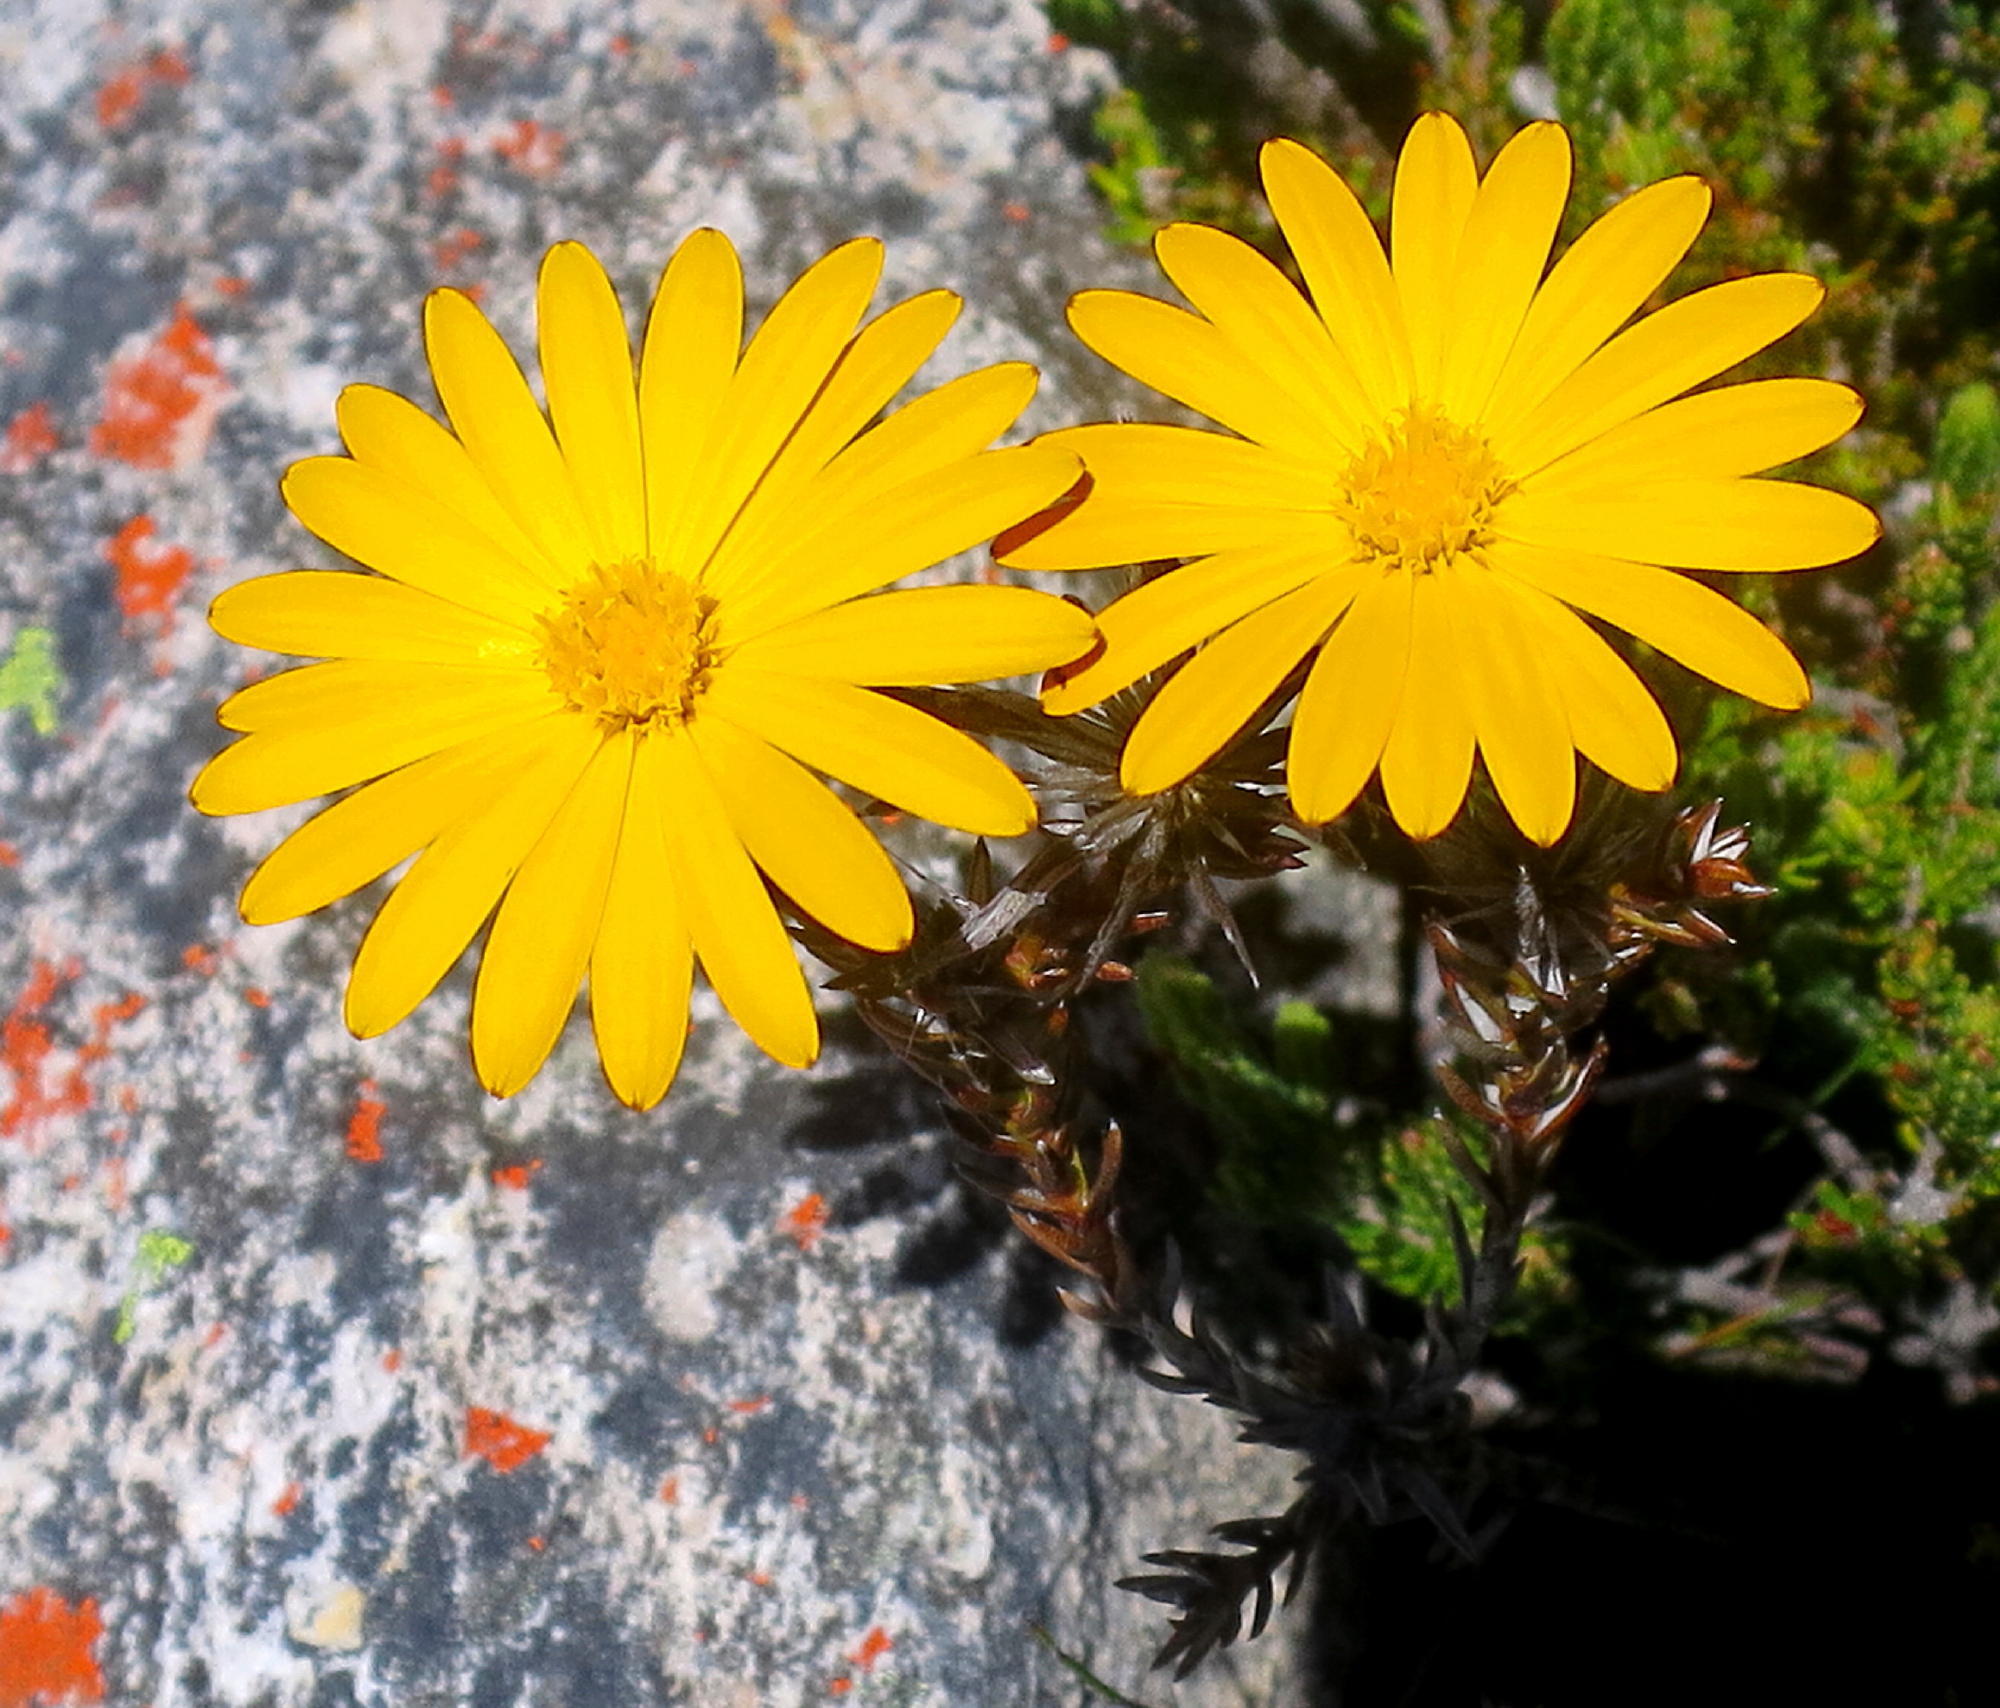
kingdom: Plantae
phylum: Tracheophyta
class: Magnoliopsida
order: Asterales
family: Asteraceae
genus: Oedera
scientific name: Oedera decussata
